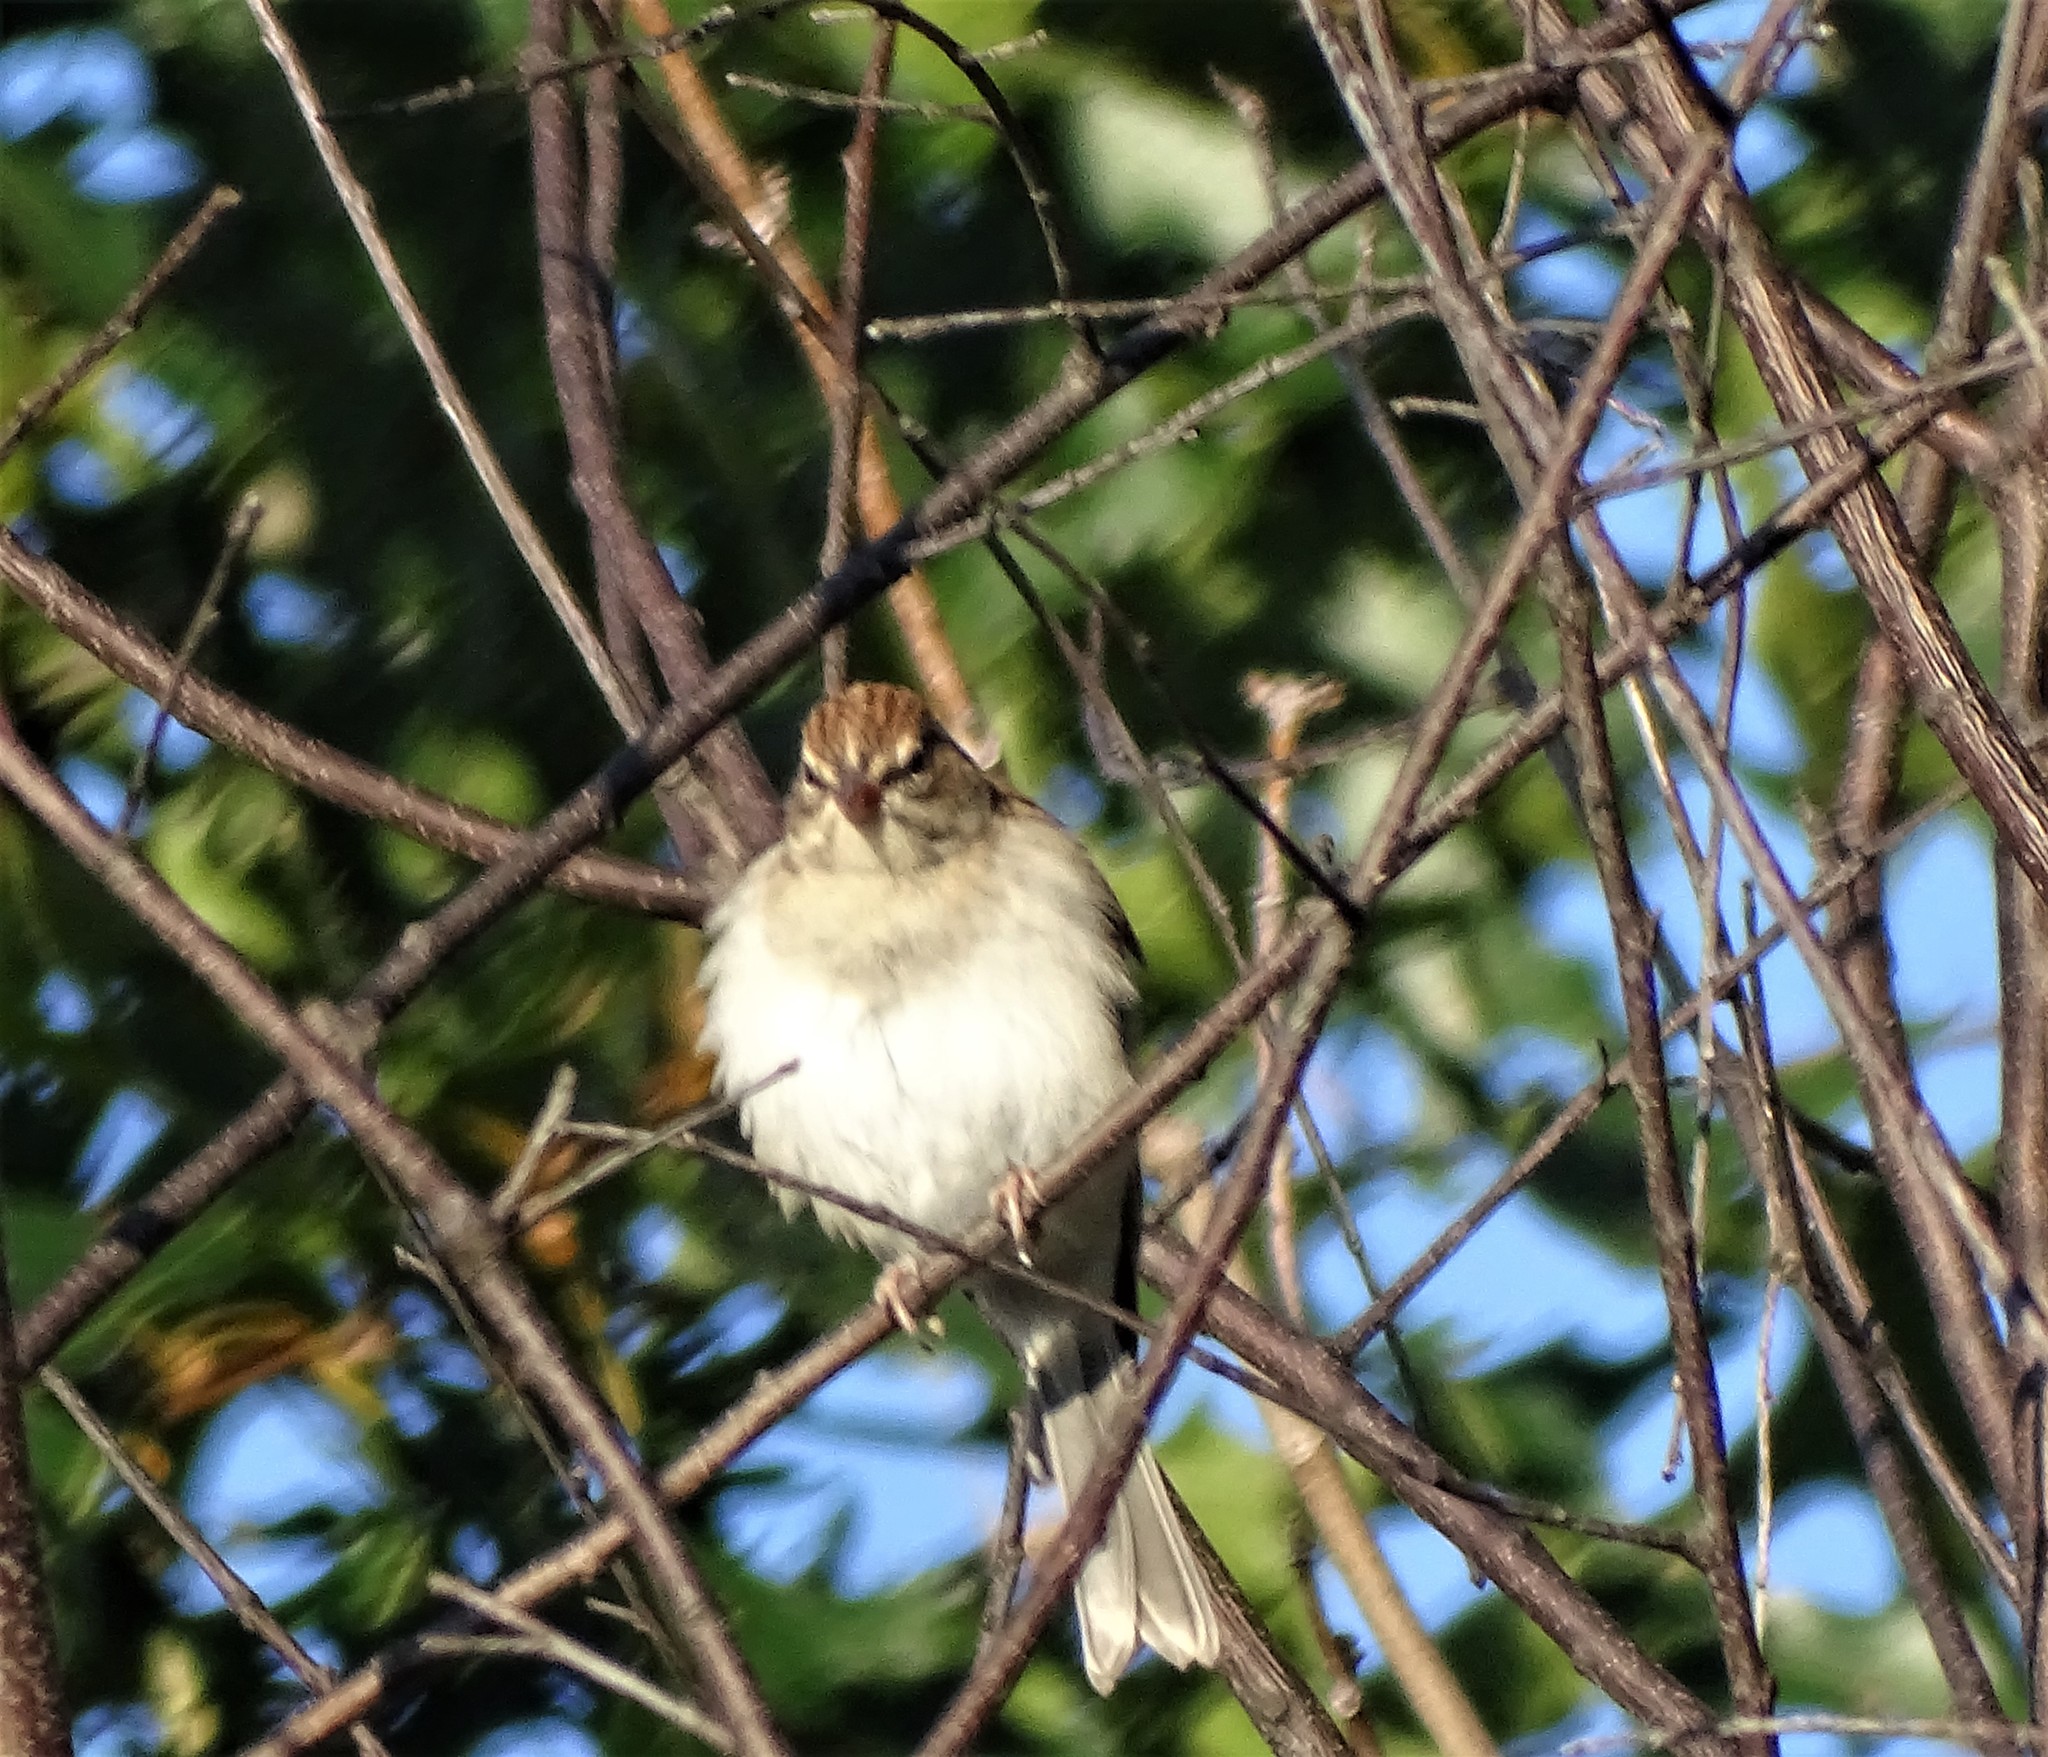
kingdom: Animalia
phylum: Chordata
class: Aves
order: Passeriformes
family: Passerellidae
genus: Spizella
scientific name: Spizella passerina
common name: Chipping sparrow
